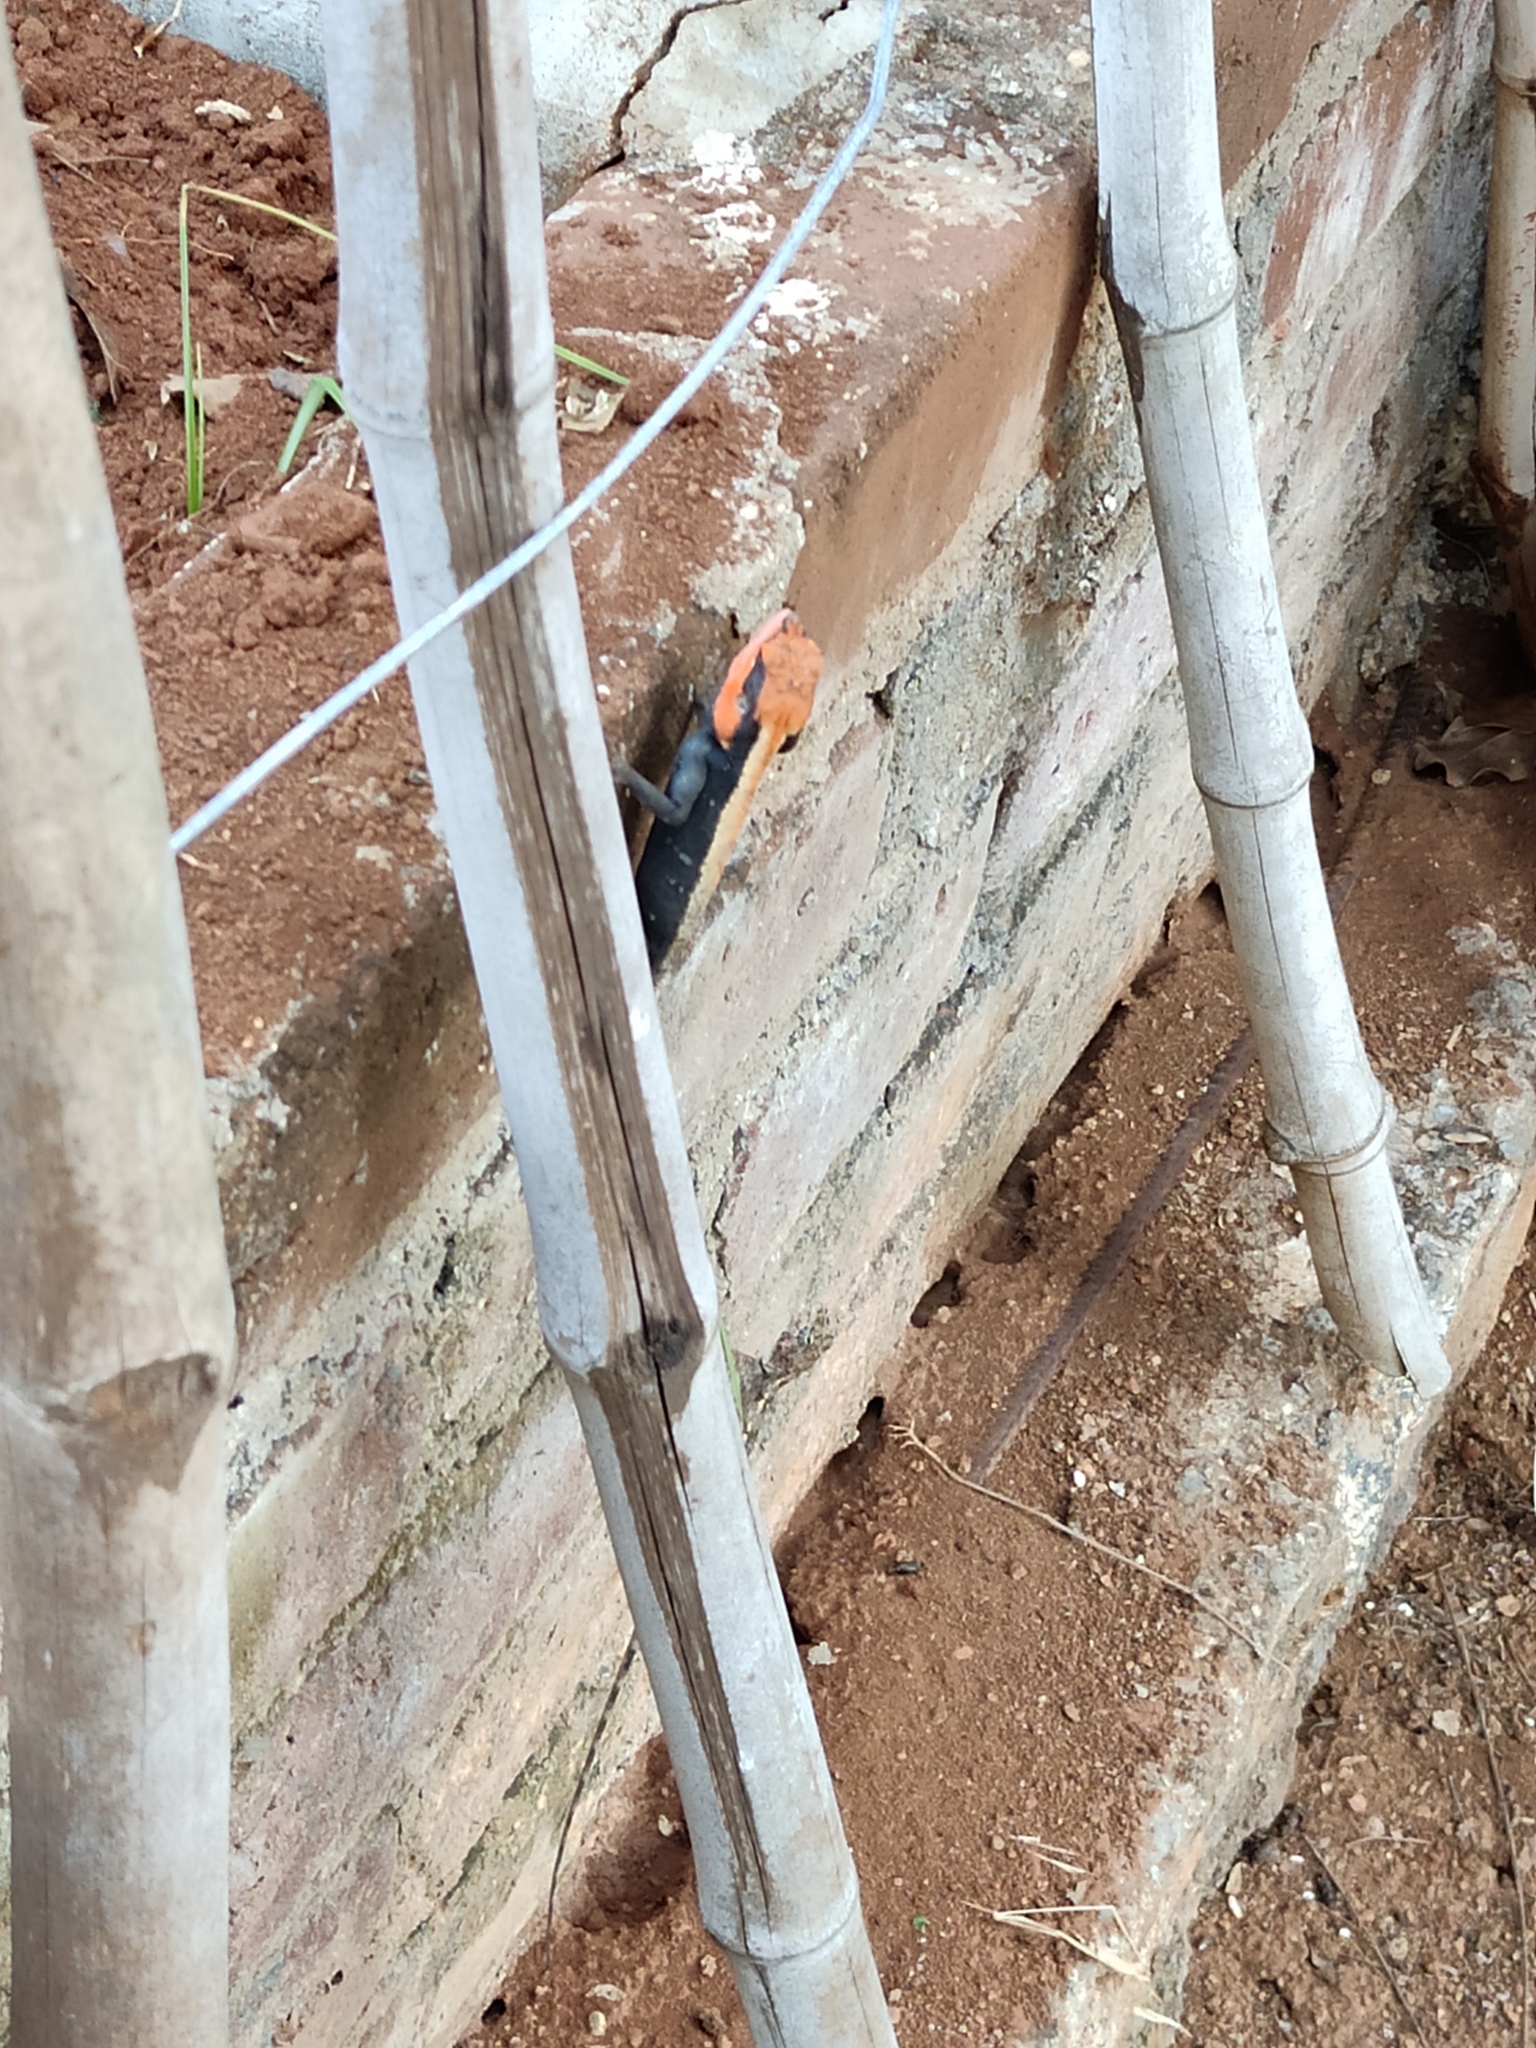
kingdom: Animalia
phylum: Chordata
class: Squamata
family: Agamidae
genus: Psammophilus
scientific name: Psammophilus dorsalis
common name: South indian rock agama
